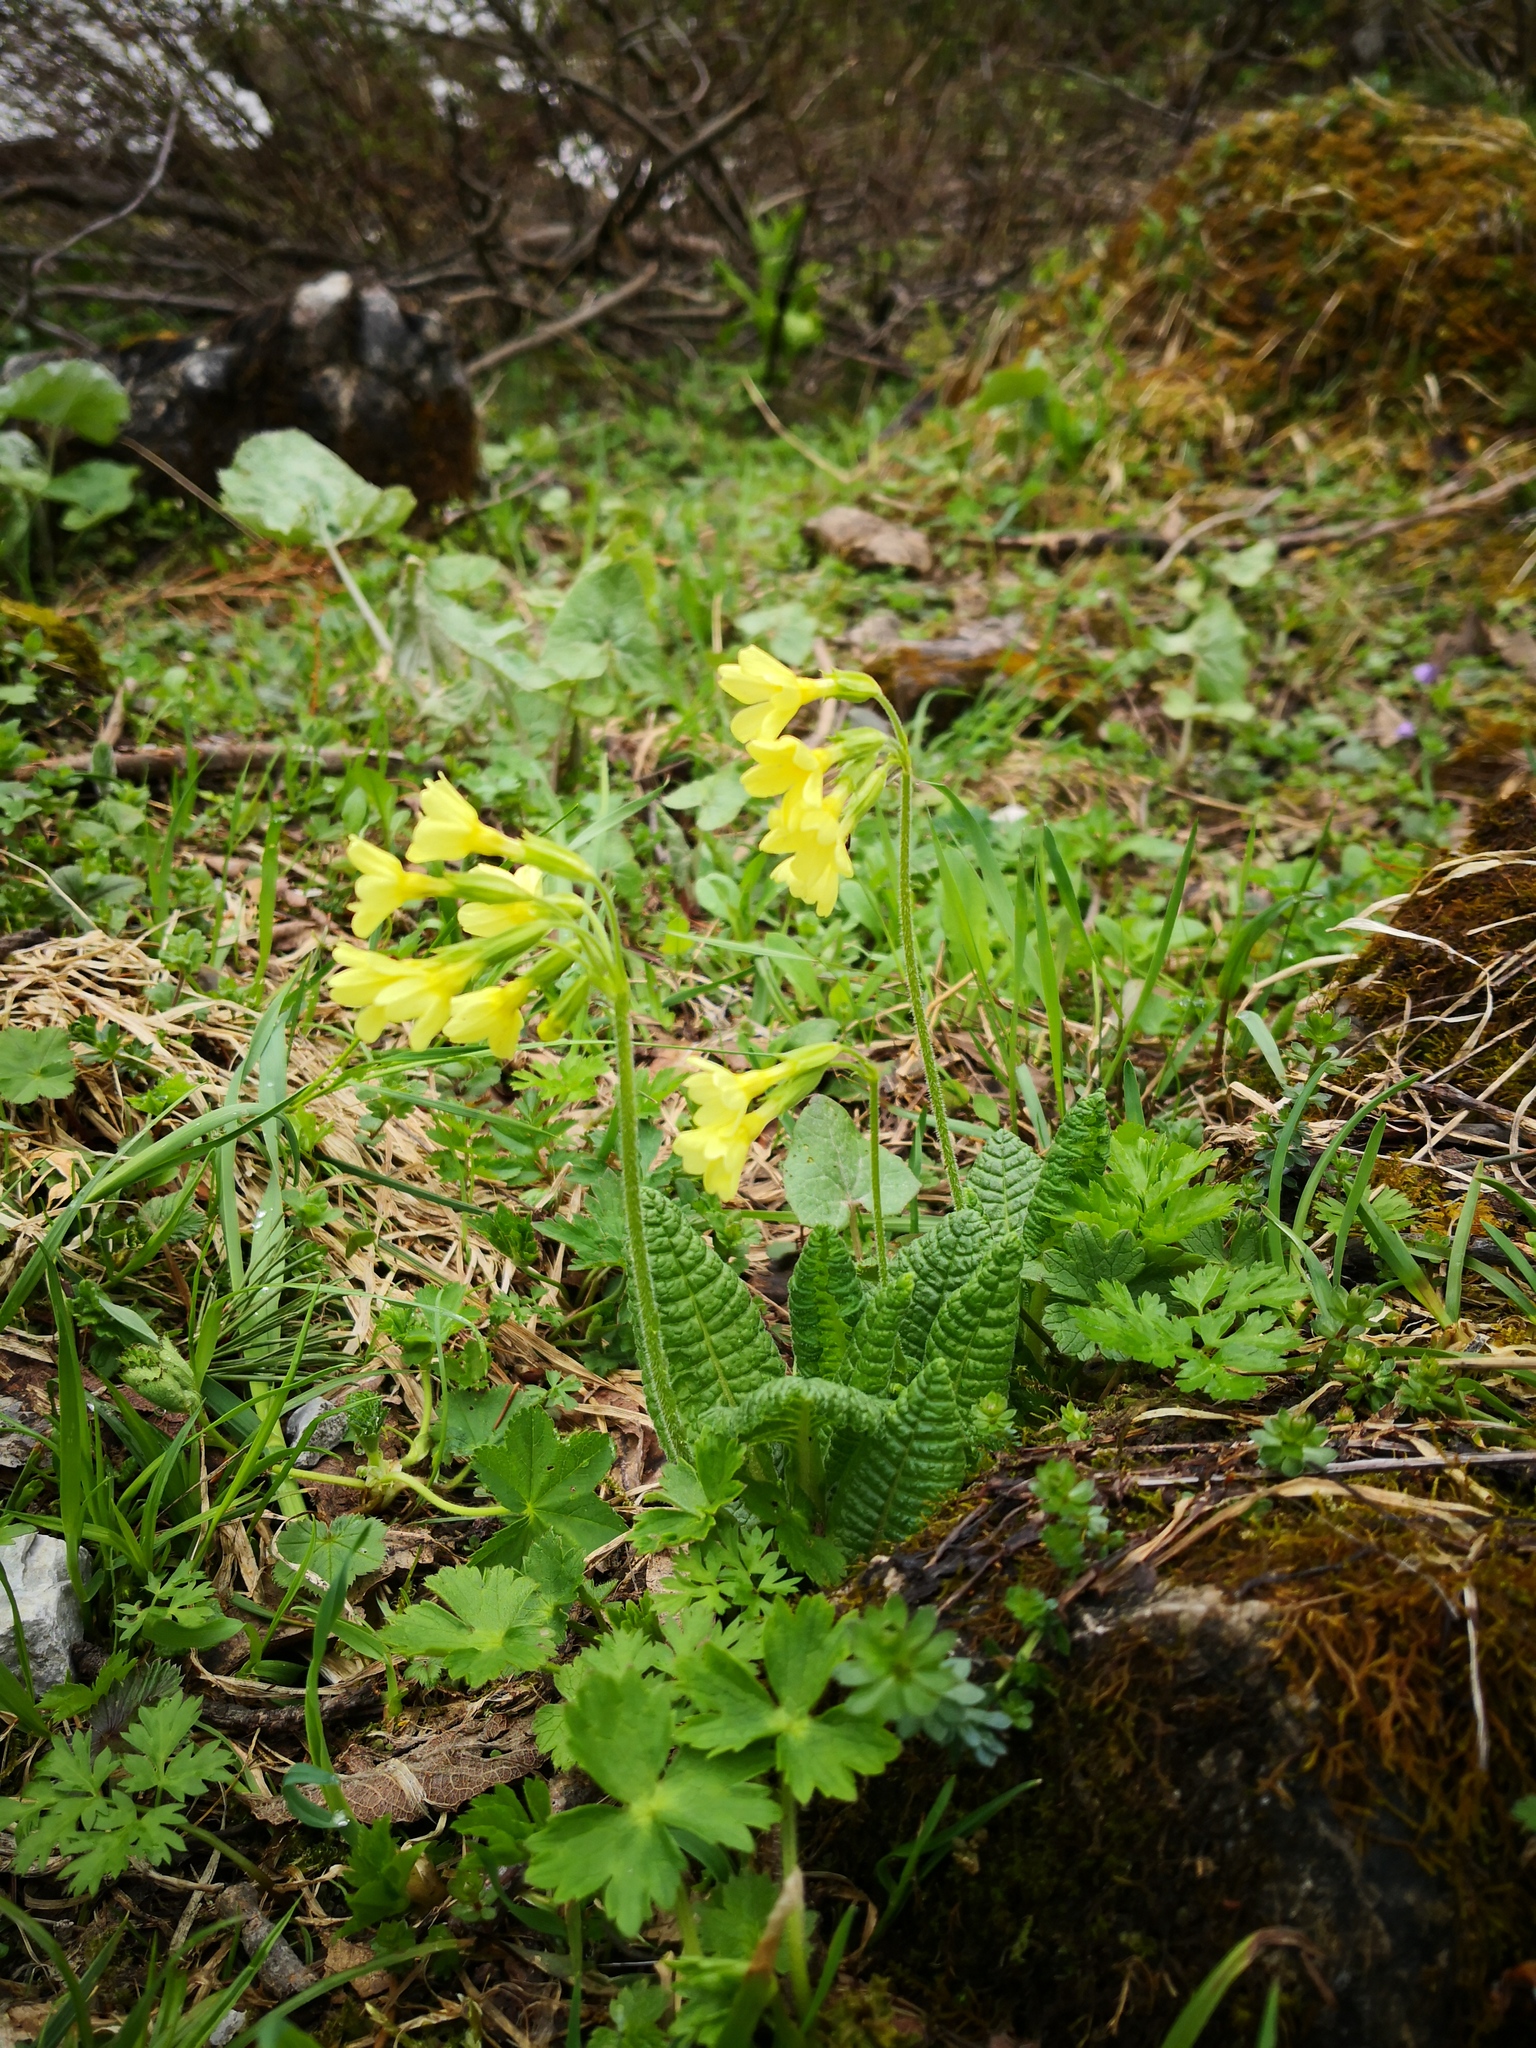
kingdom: Plantae
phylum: Tracheophyta
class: Magnoliopsida
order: Ericales
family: Primulaceae
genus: Primula
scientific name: Primula elatior
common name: Oxlip
